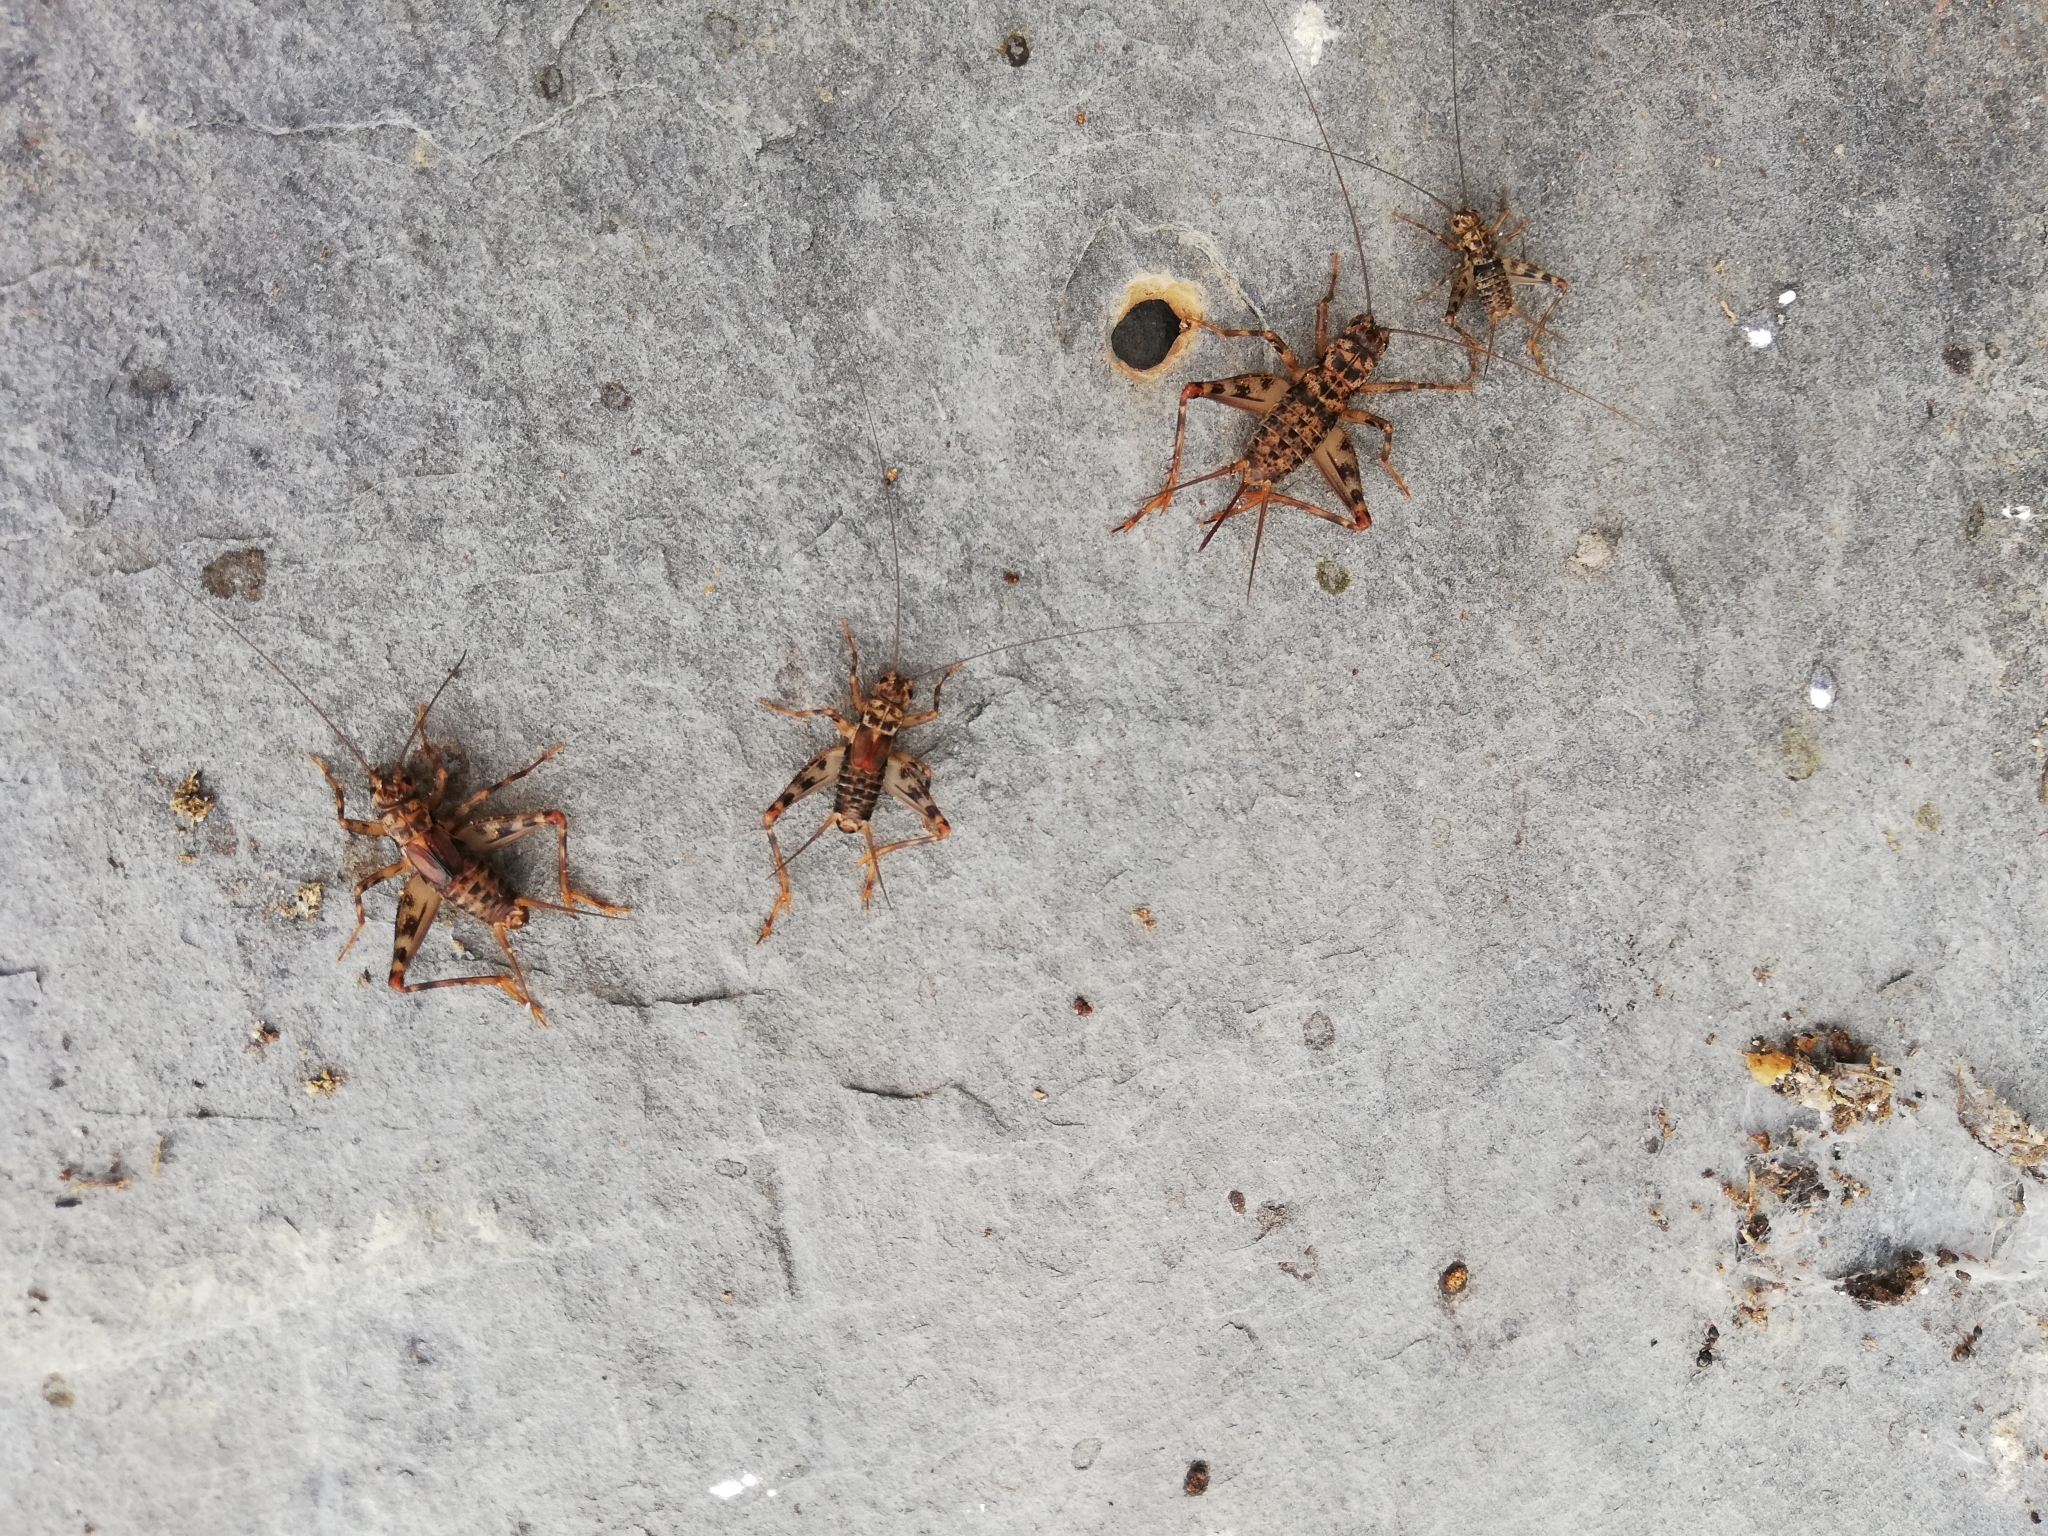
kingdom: Animalia
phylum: Arthropoda
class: Insecta
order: Orthoptera
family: Gryllidae
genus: Petaloptila
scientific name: Petaloptila galaica
